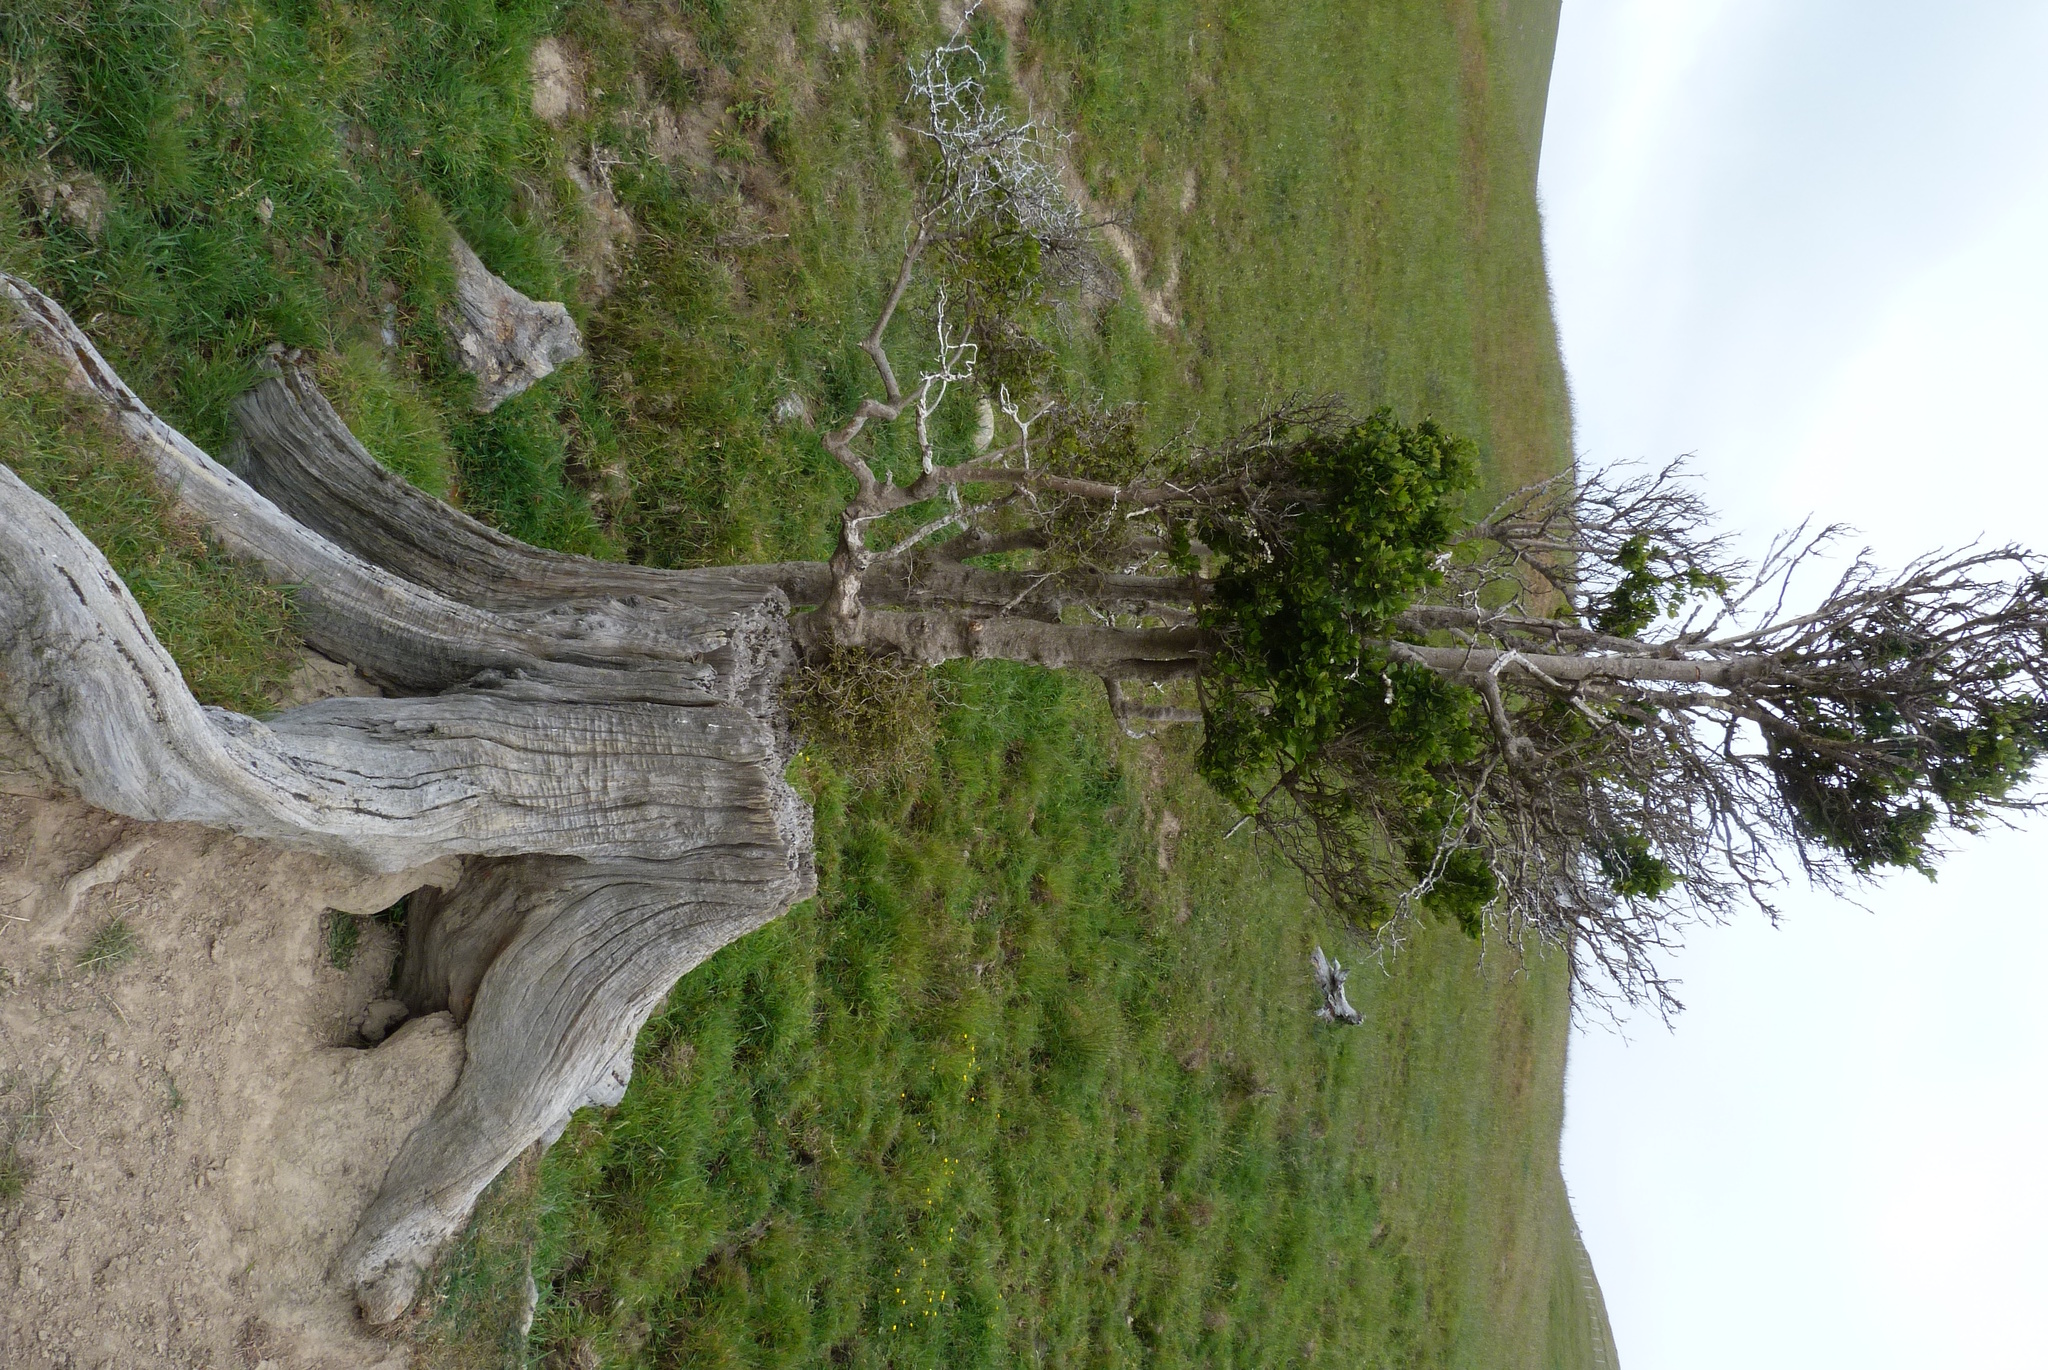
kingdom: Plantae
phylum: Tracheophyta
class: Magnoliopsida
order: Apiales
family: Pennantiaceae
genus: Pennantia
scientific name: Pennantia corymbosa
